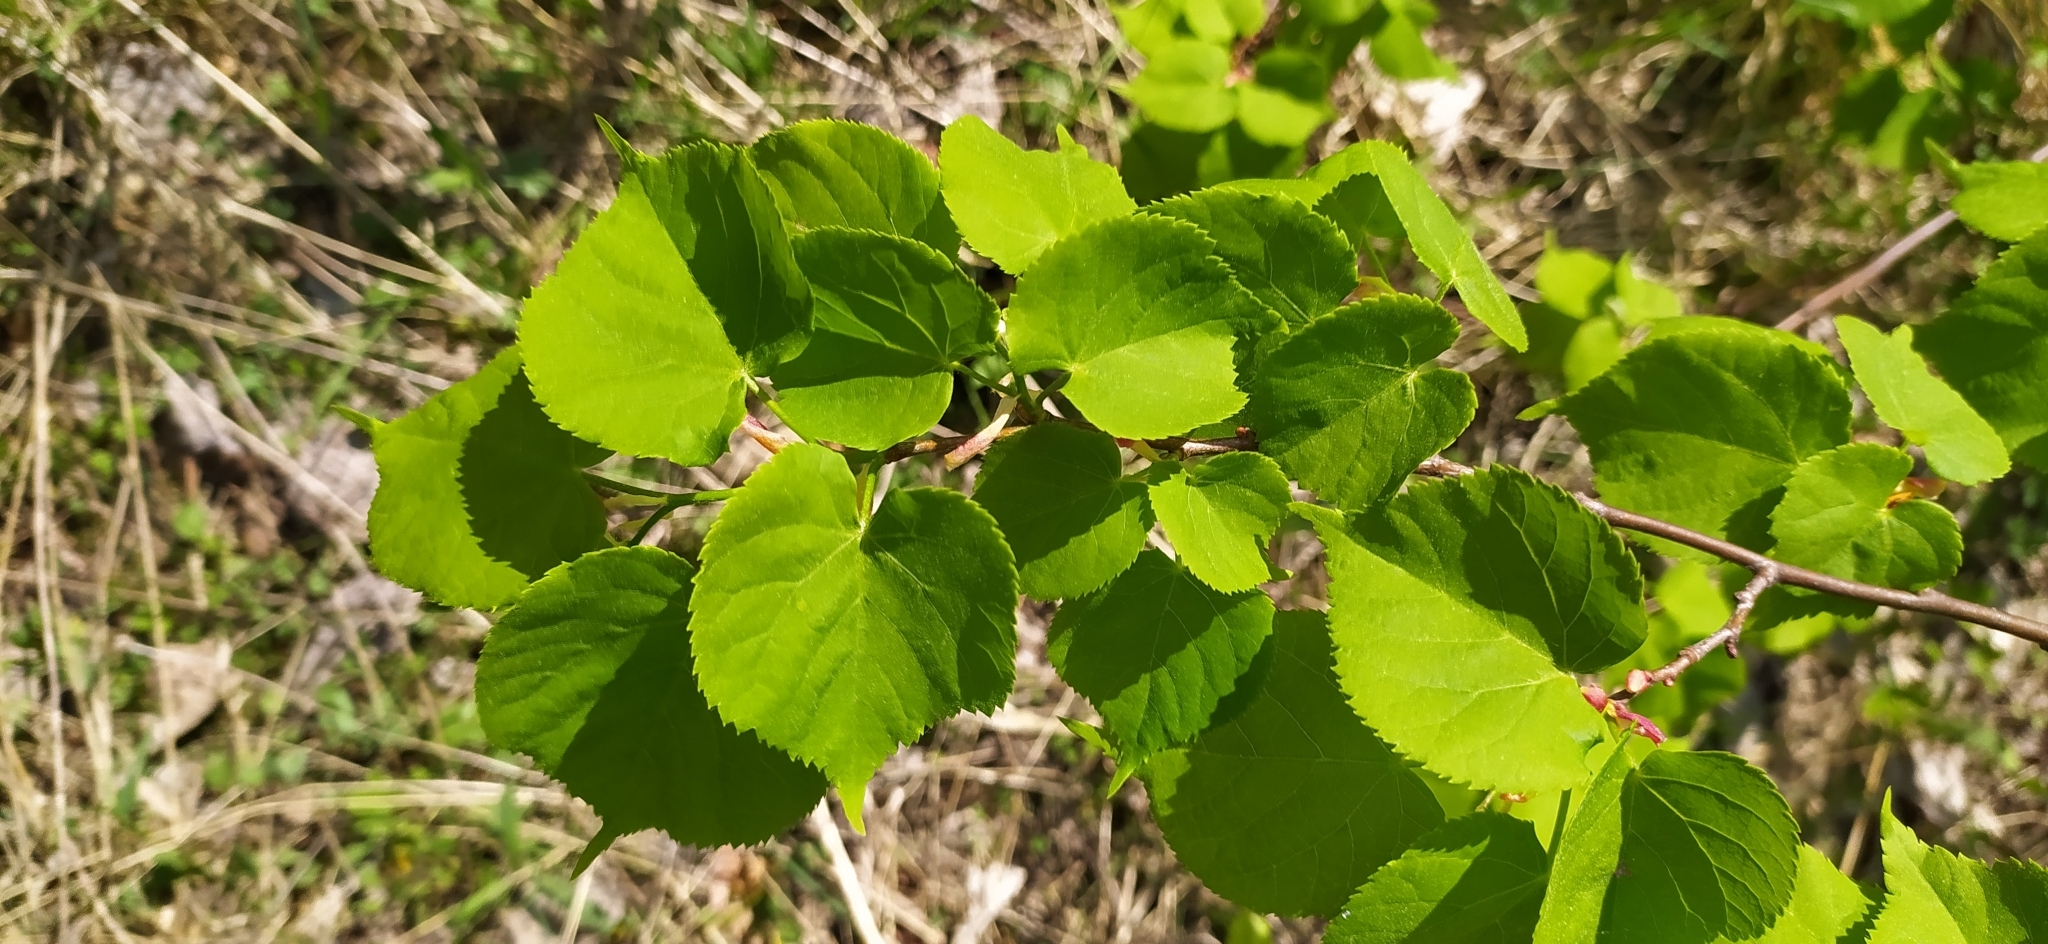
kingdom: Plantae
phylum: Tracheophyta
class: Magnoliopsida
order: Malvales
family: Malvaceae
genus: Tilia
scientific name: Tilia cordata
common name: Small-leaved lime
